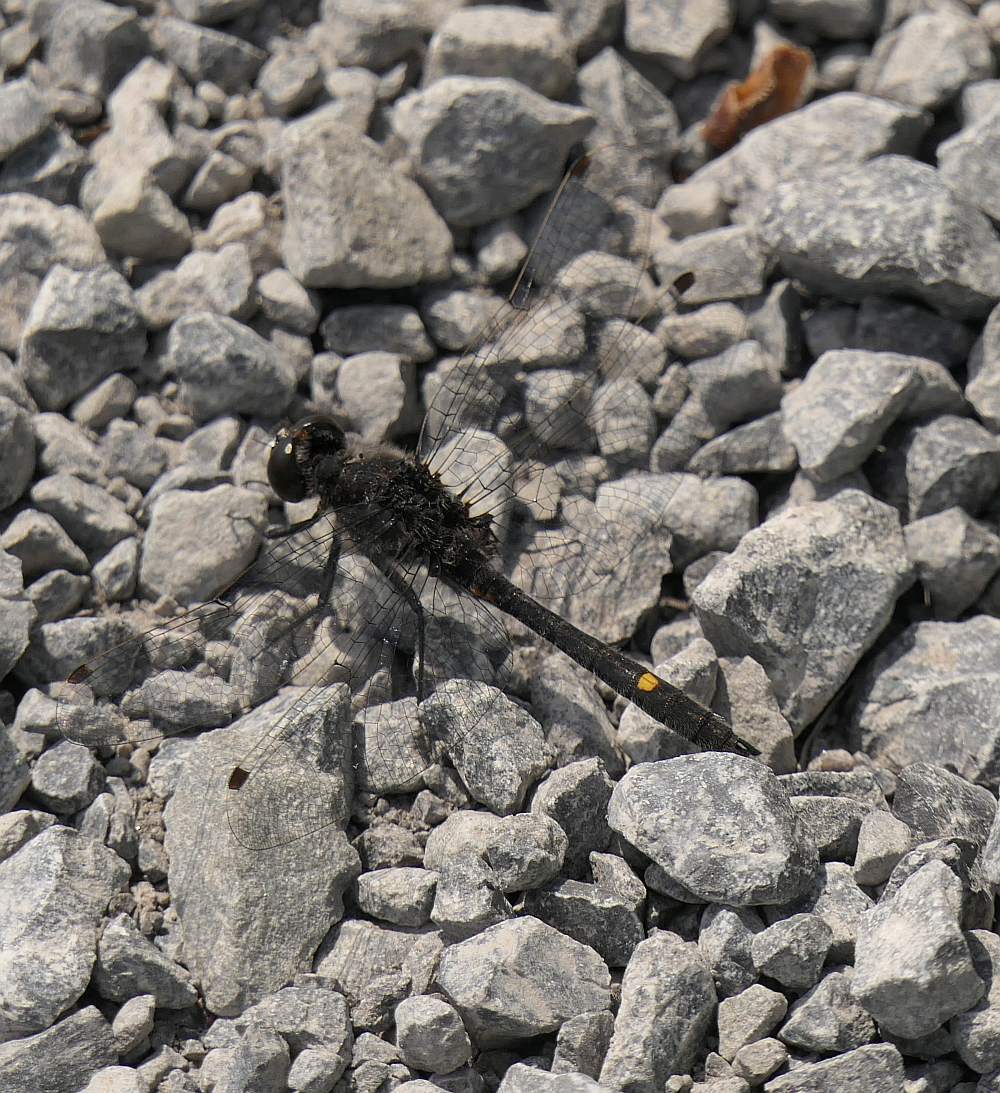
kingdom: Animalia
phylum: Arthropoda
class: Insecta
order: Odonata
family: Libellulidae
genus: Leucorrhinia
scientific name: Leucorrhinia intacta
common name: Dot-tailed whiteface
